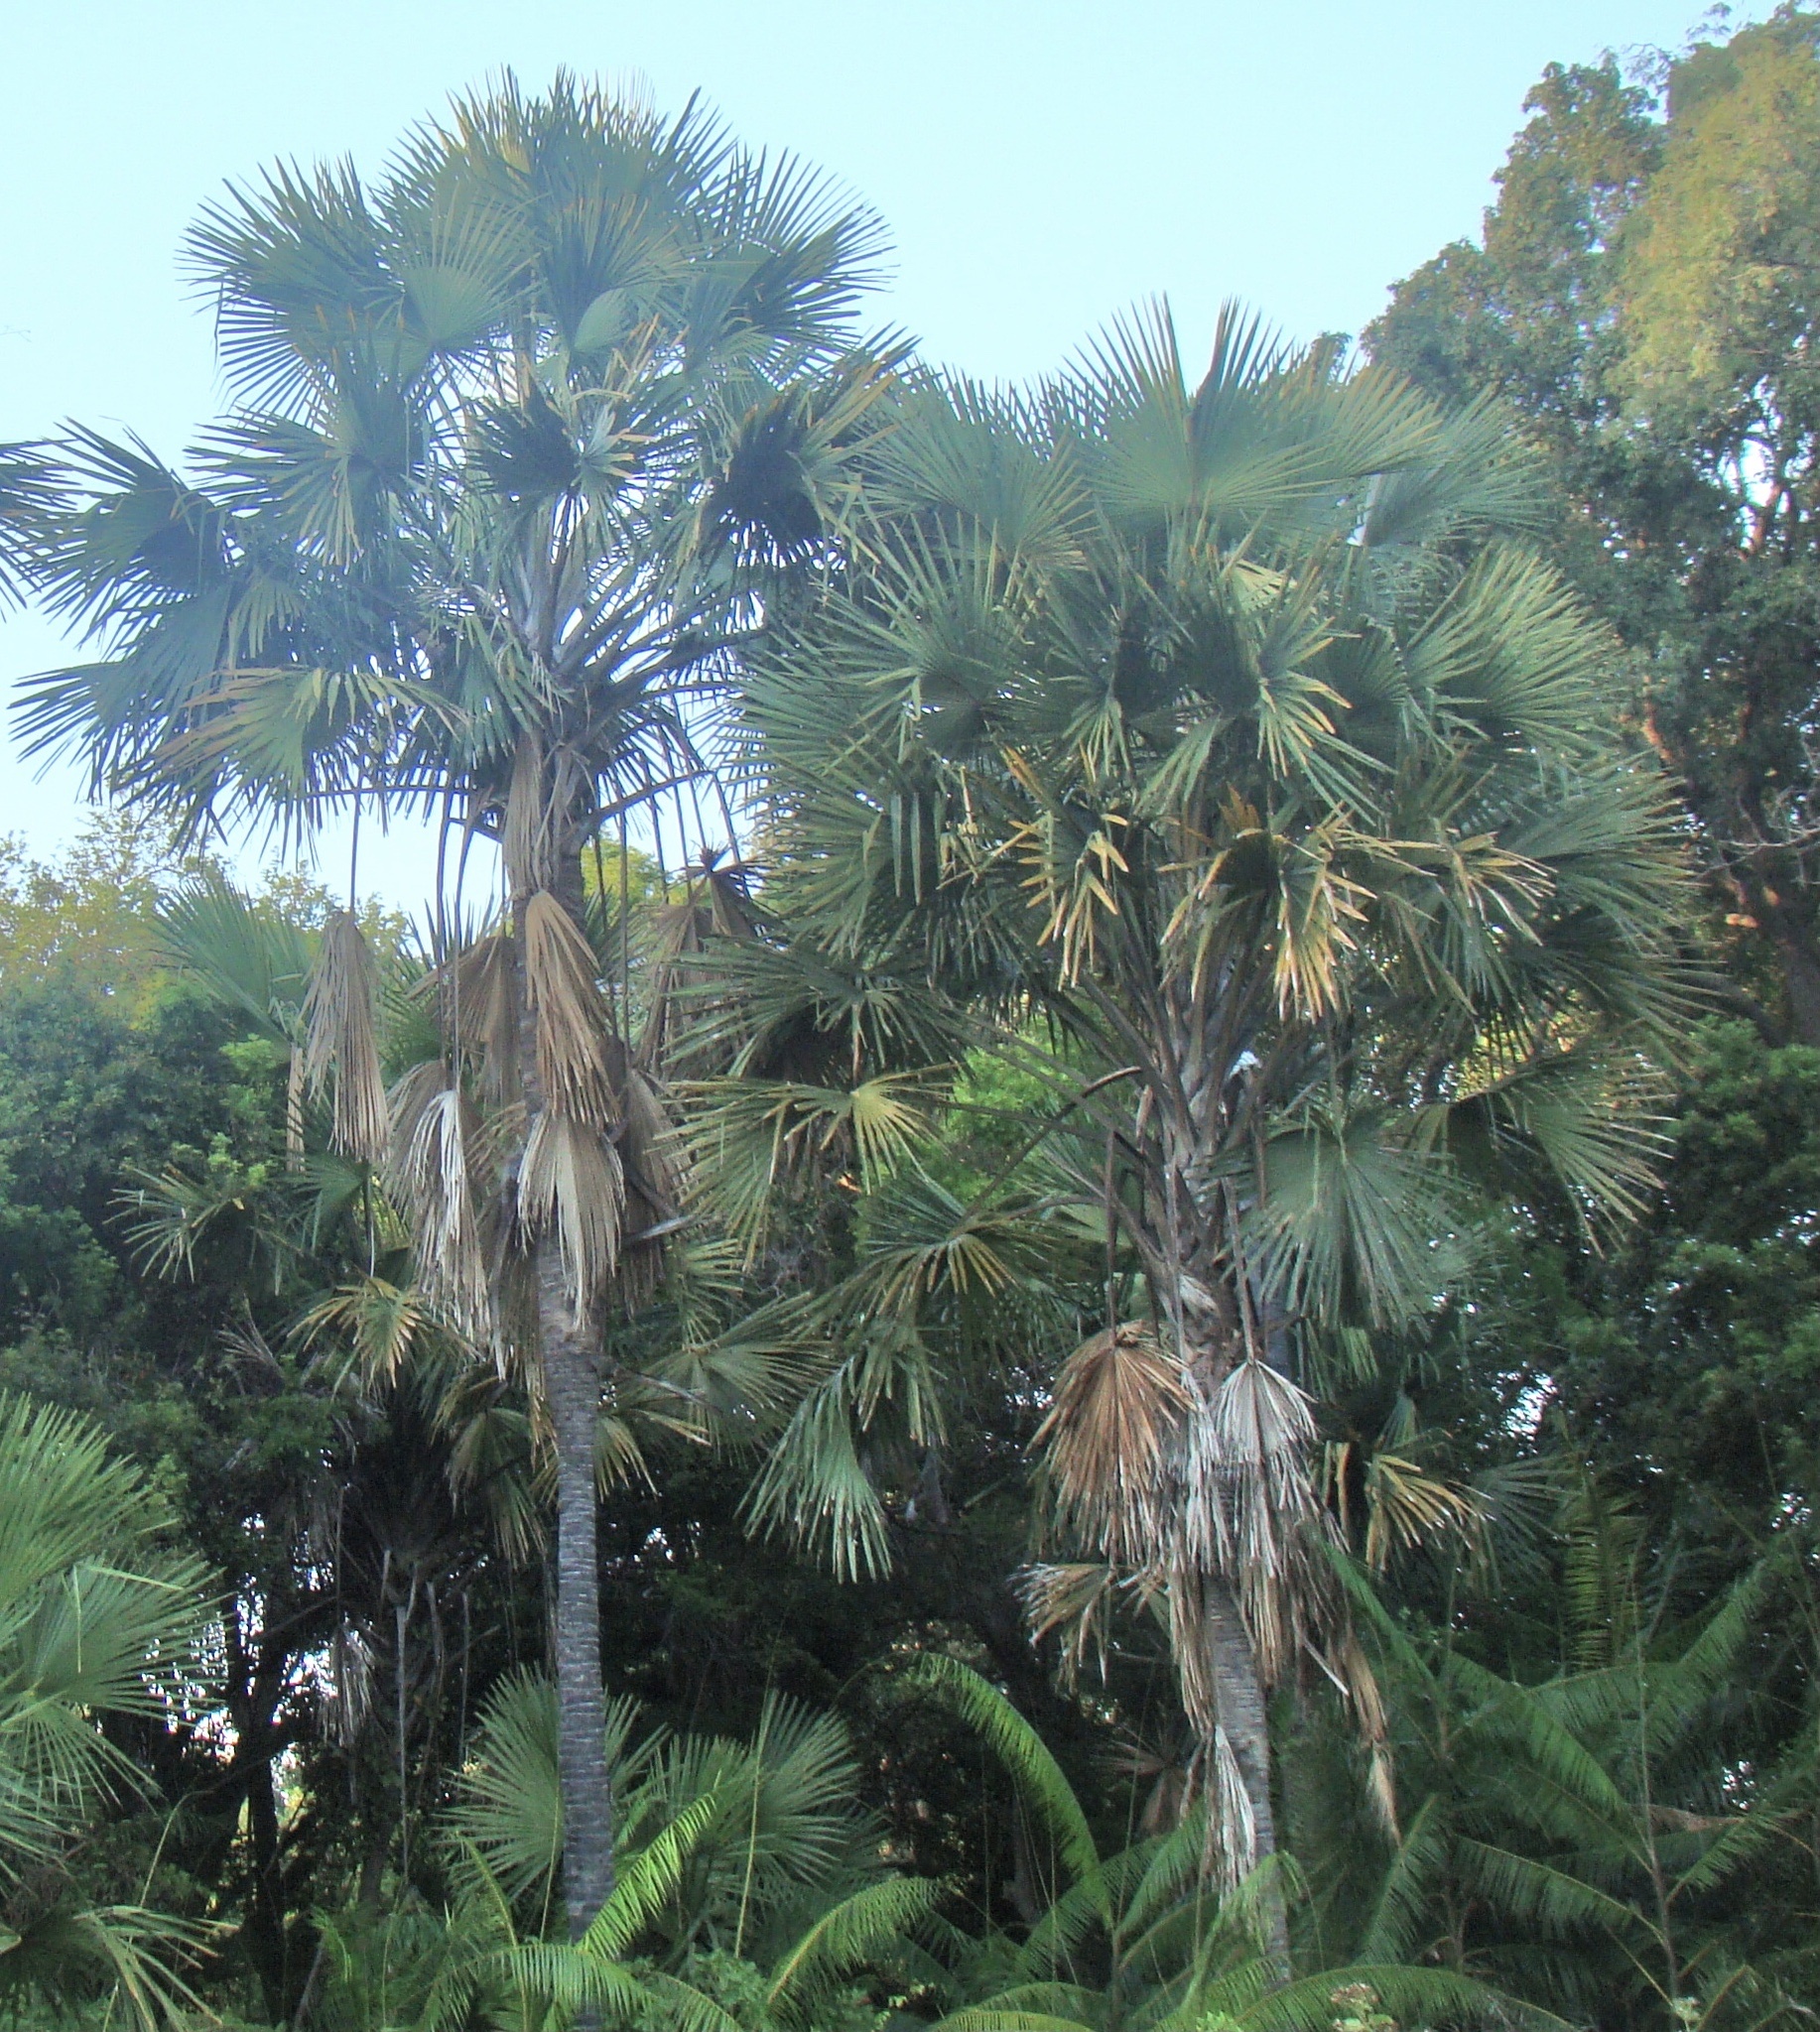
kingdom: Plantae
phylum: Tracheophyta
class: Liliopsida
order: Arecales
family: Arecaceae
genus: Corypha
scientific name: Corypha utan
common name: Buri palm
